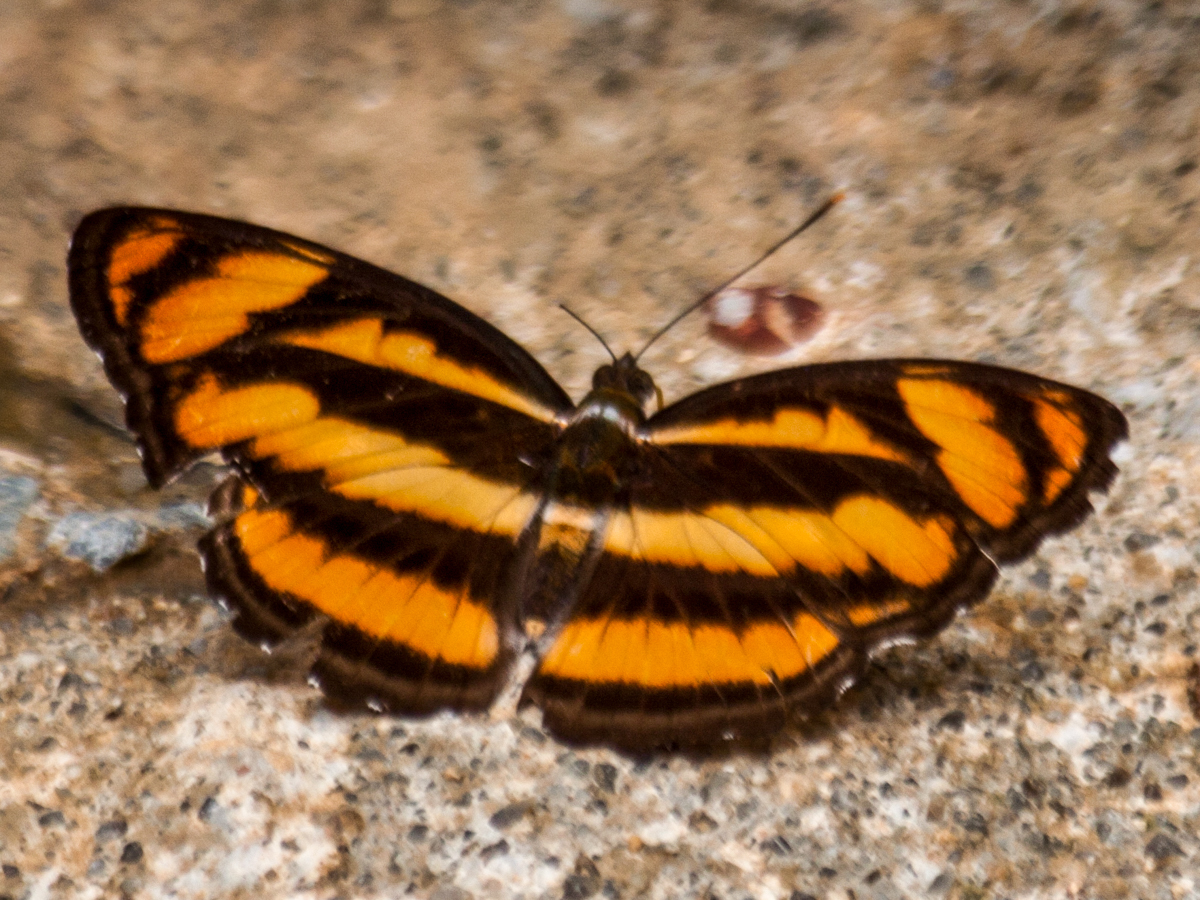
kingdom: Animalia
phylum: Arthropoda
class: Insecta
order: Lepidoptera
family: Nymphalidae
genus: Parathyma
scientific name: Parathyma nefte
